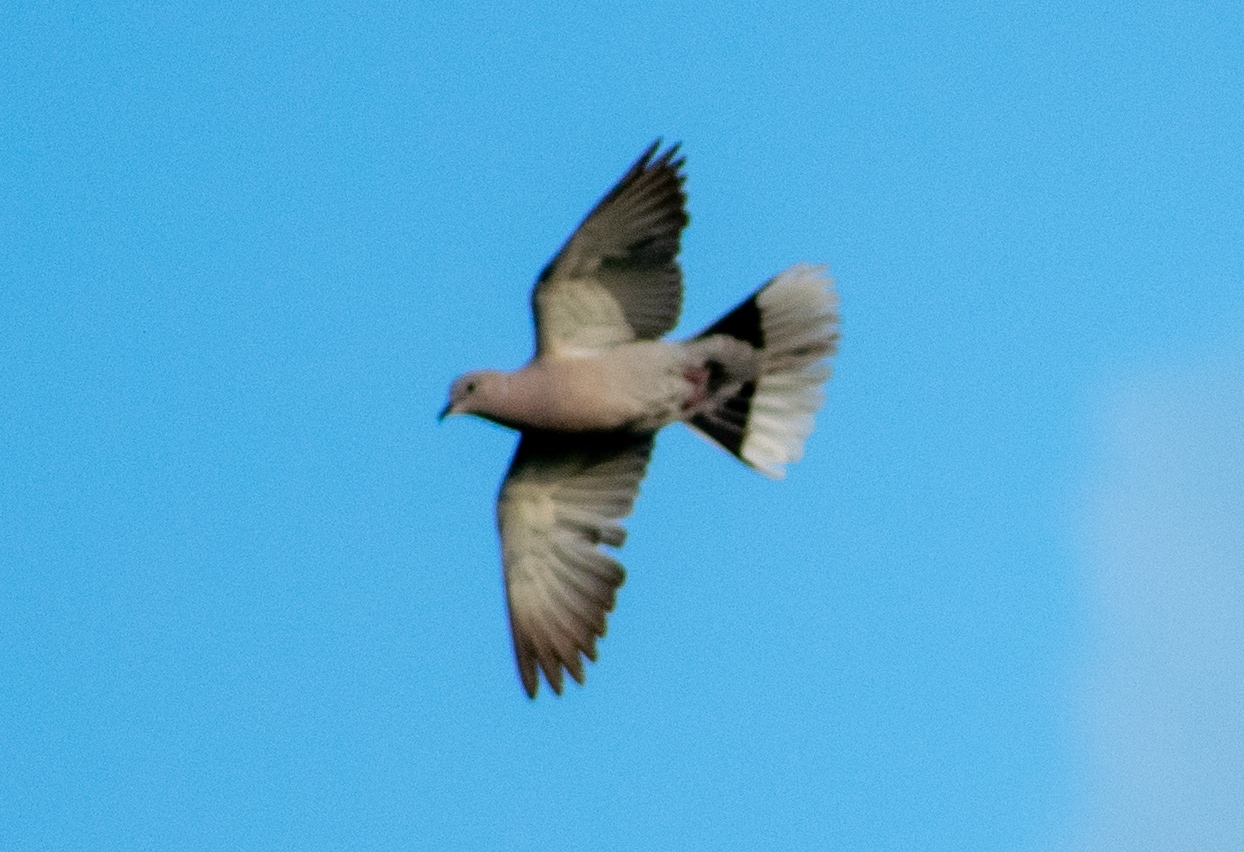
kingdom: Animalia
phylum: Chordata
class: Aves
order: Columbiformes
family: Columbidae
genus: Streptopelia
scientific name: Streptopelia decaocto
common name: Eurasian collared dove
